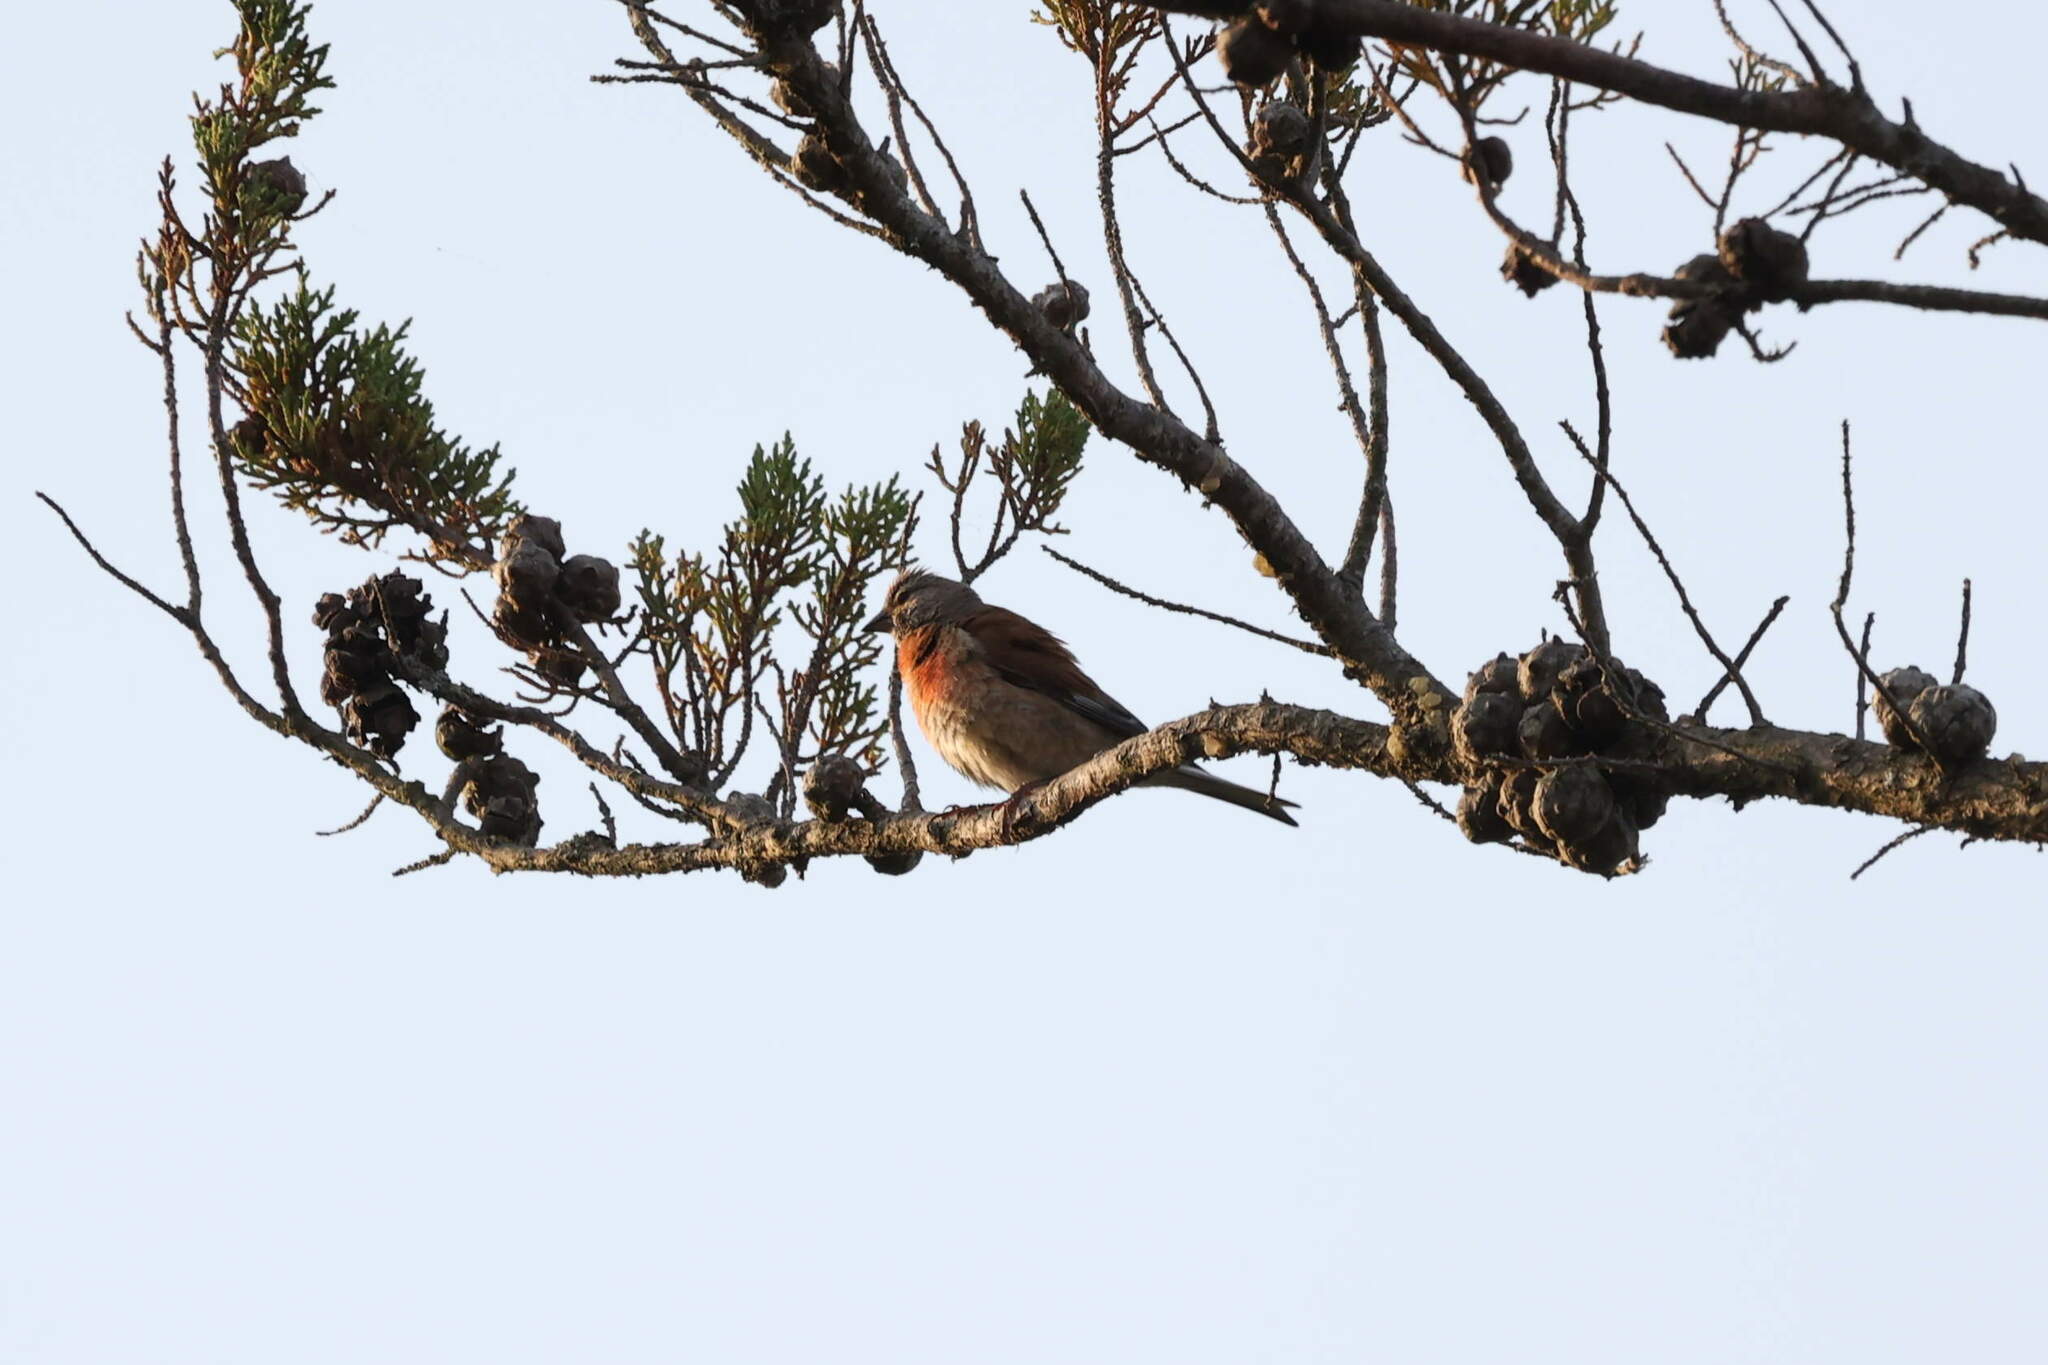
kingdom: Animalia
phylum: Chordata
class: Aves
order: Passeriformes
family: Fringillidae
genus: Linaria
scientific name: Linaria cannabina
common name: Common linnet
